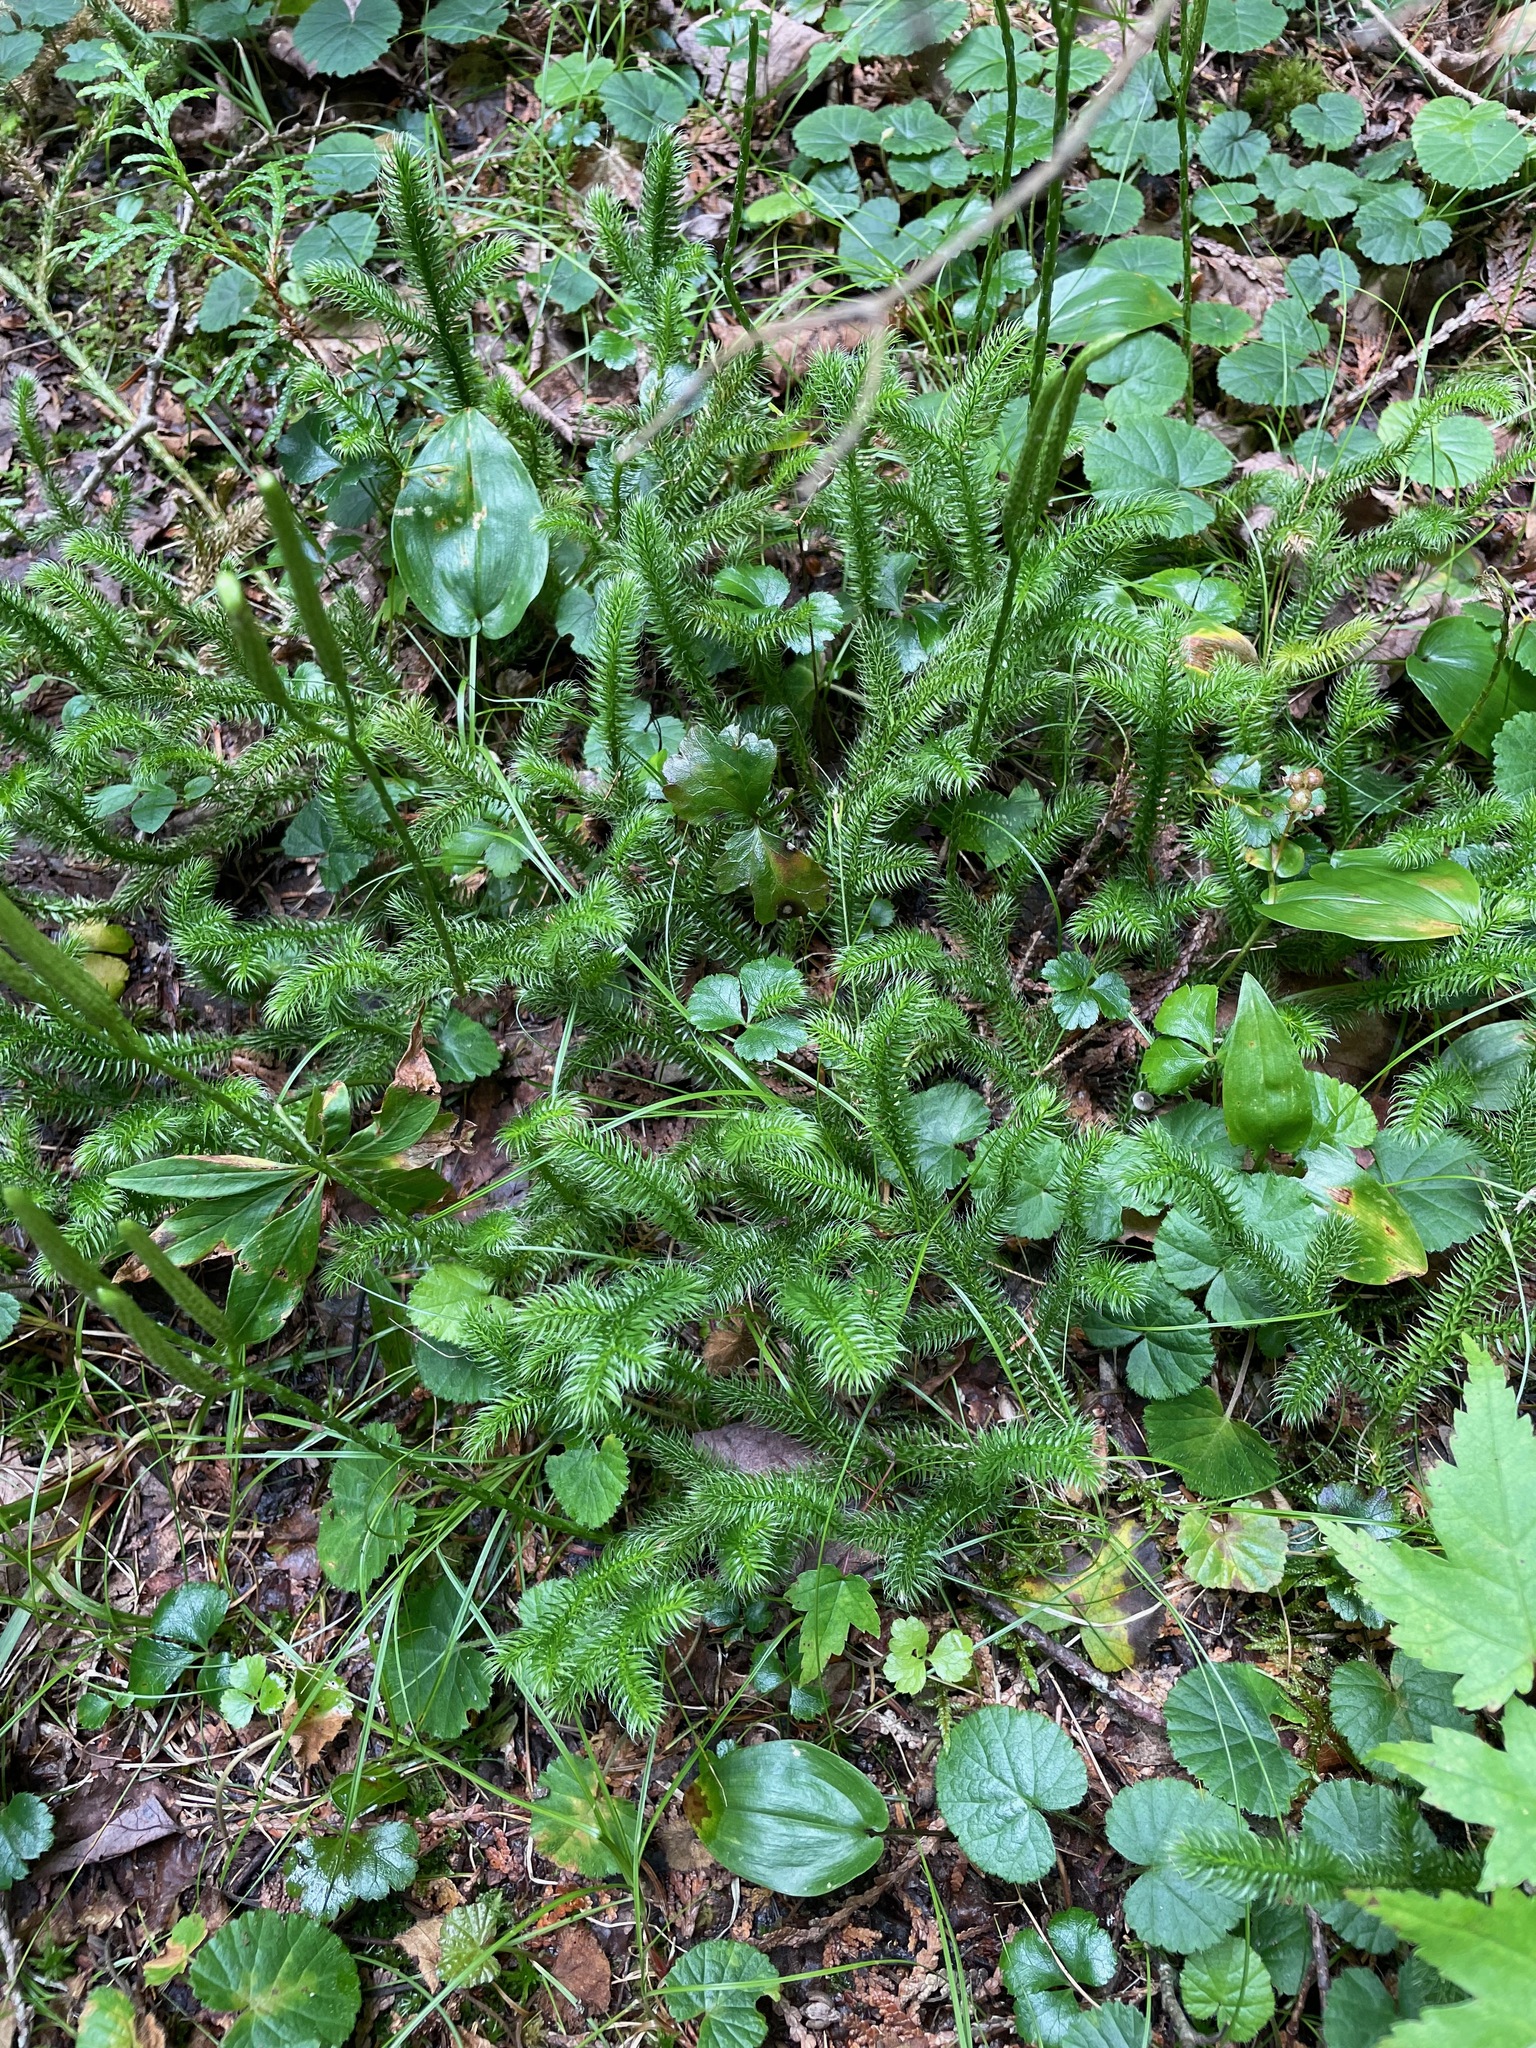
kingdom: Plantae
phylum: Tracheophyta
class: Lycopodiopsida
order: Lycopodiales
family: Lycopodiaceae
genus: Lycopodium
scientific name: Lycopodium clavatum
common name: Stag's-horn clubmoss
